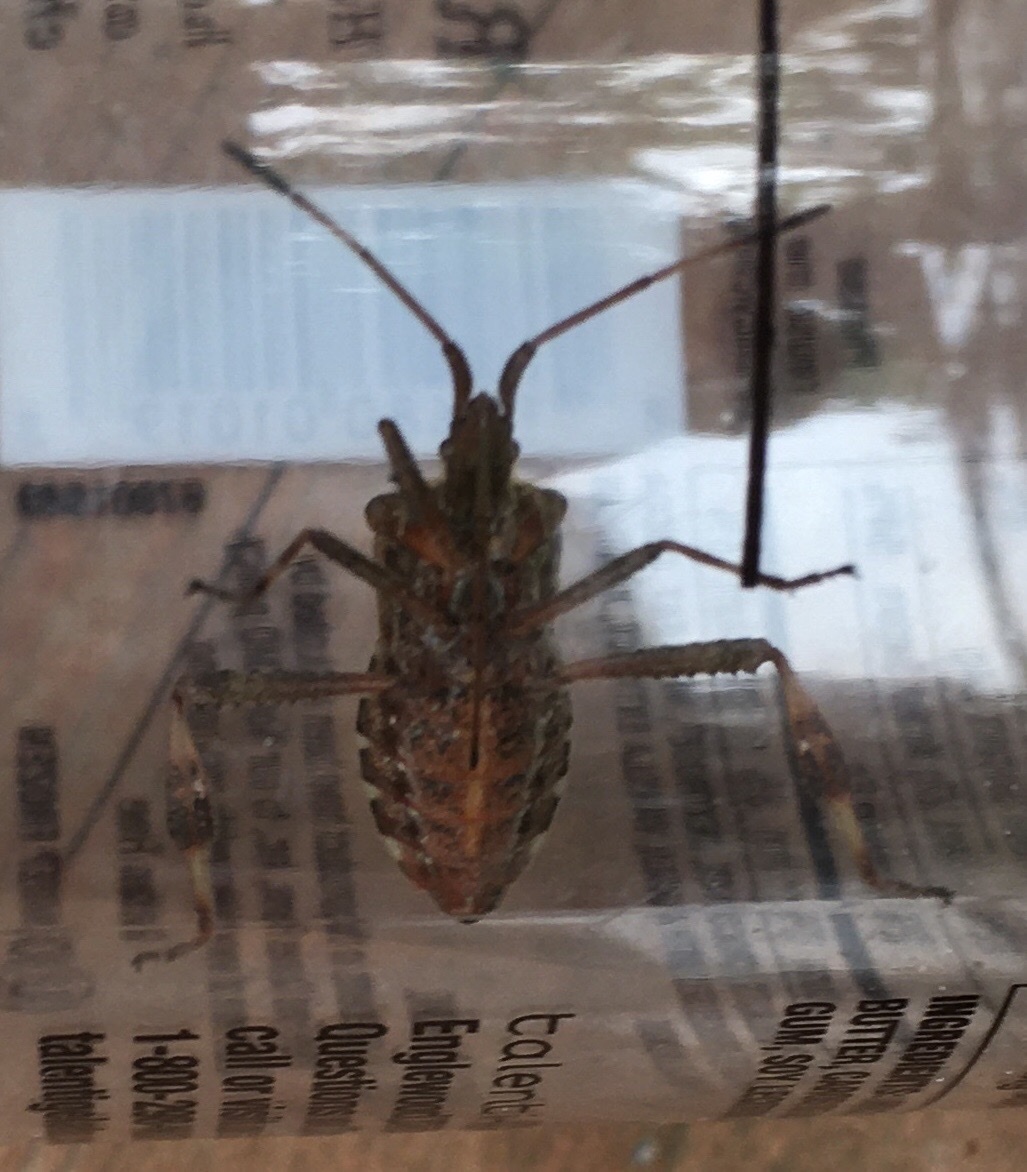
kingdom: Animalia
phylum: Arthropoda
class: Insecta
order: Hemiptera
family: Coreidae
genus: Leptoglossus
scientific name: Leptoglossus occidentalis
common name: Western conifer-seed bug
